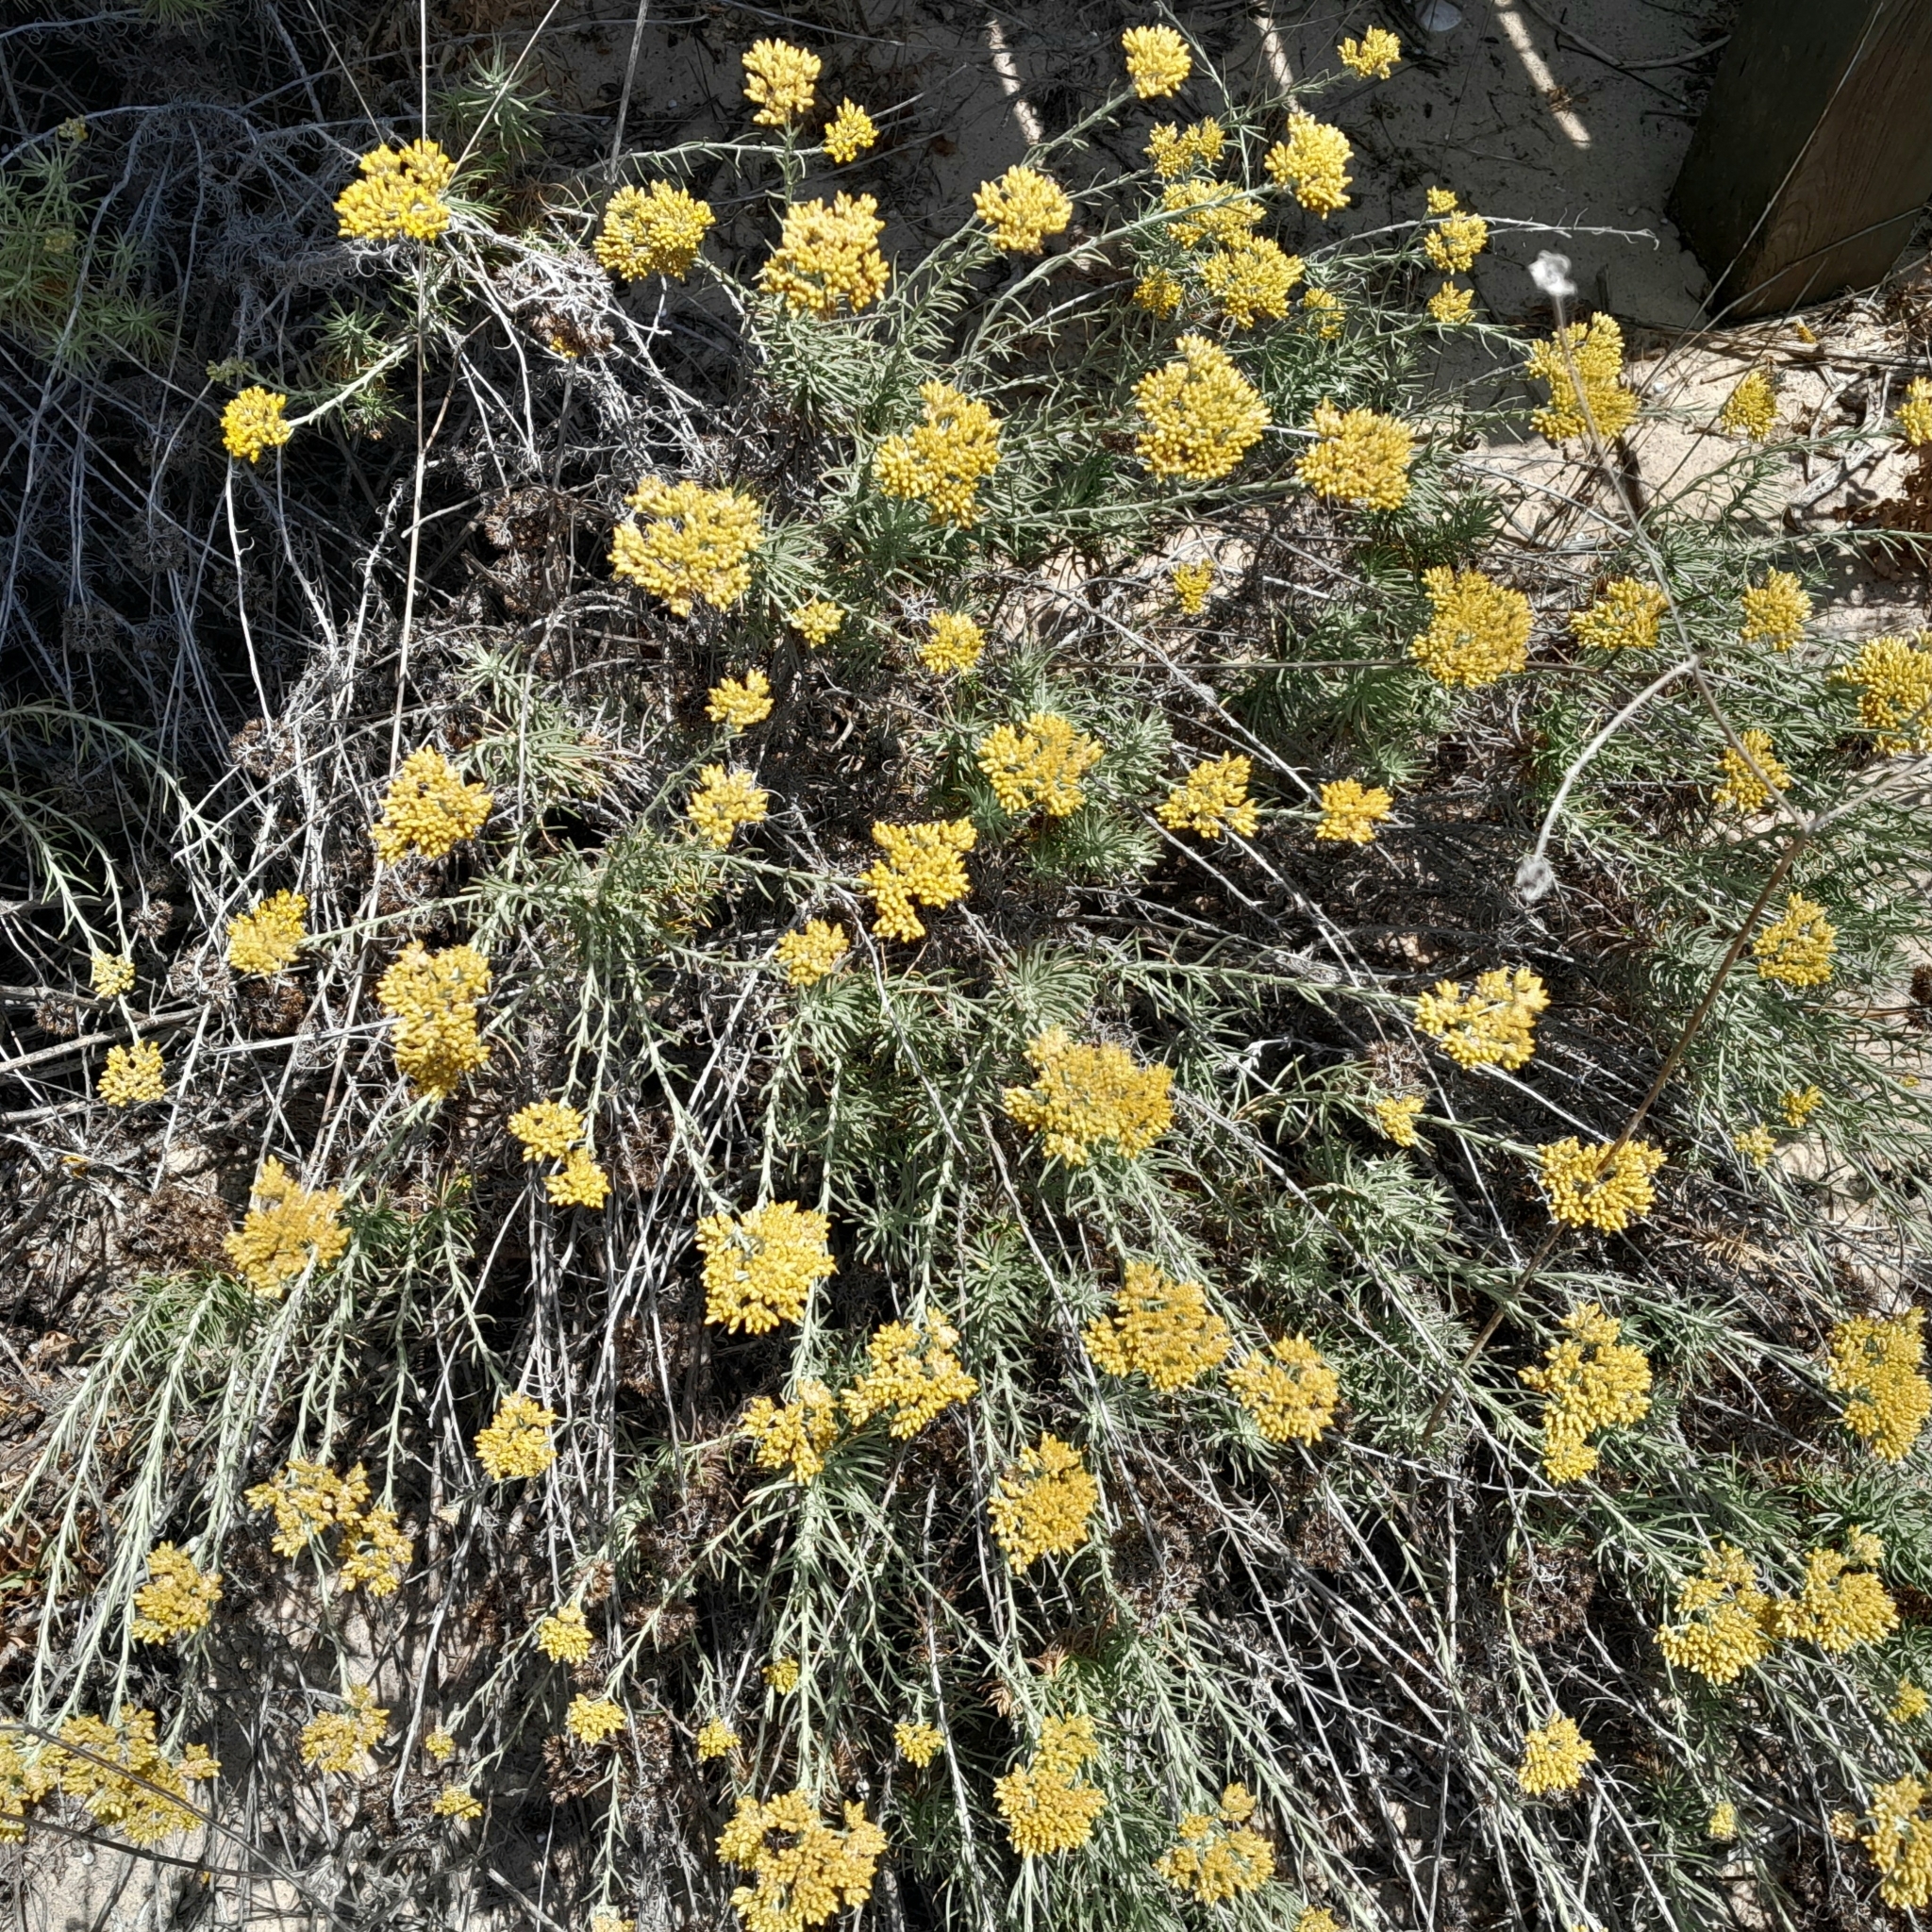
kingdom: Plantae
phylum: Tracheophyta
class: Magnoliopsida
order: Asterales
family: Asteraceae
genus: Helichrysum
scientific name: Helichrysum serotinum
